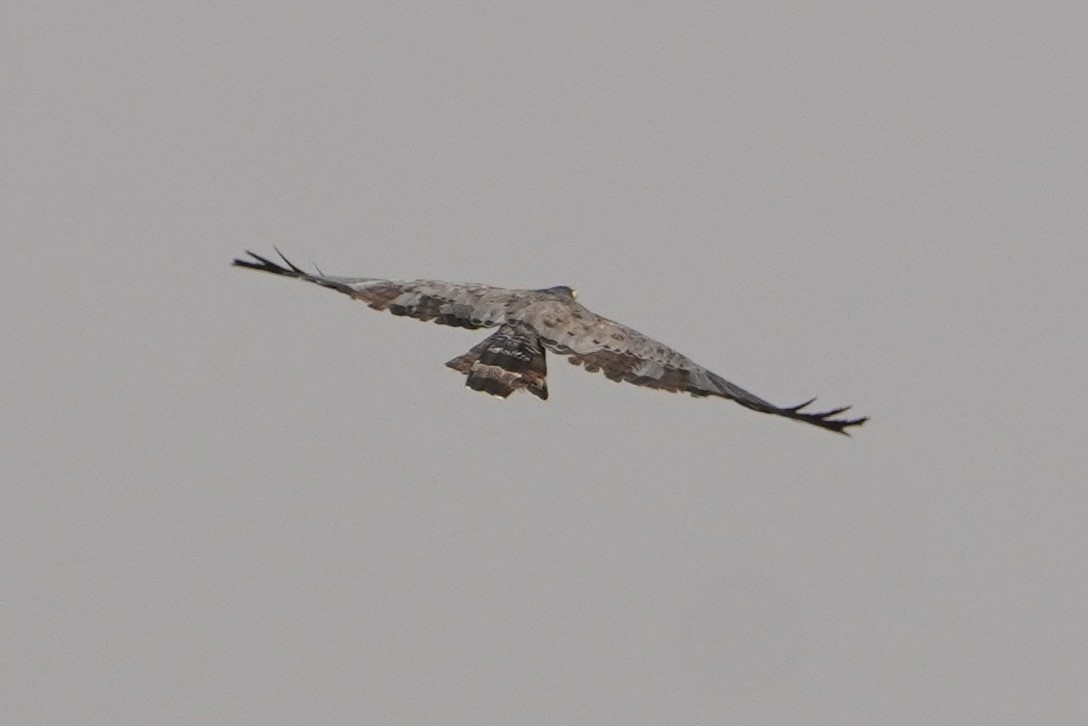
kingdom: Animalia
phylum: Chordata
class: Aves
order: Accipitriformes
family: Accipitridae
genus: Polyboroides
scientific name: Polyboroides typus
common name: African harrier-hawk
